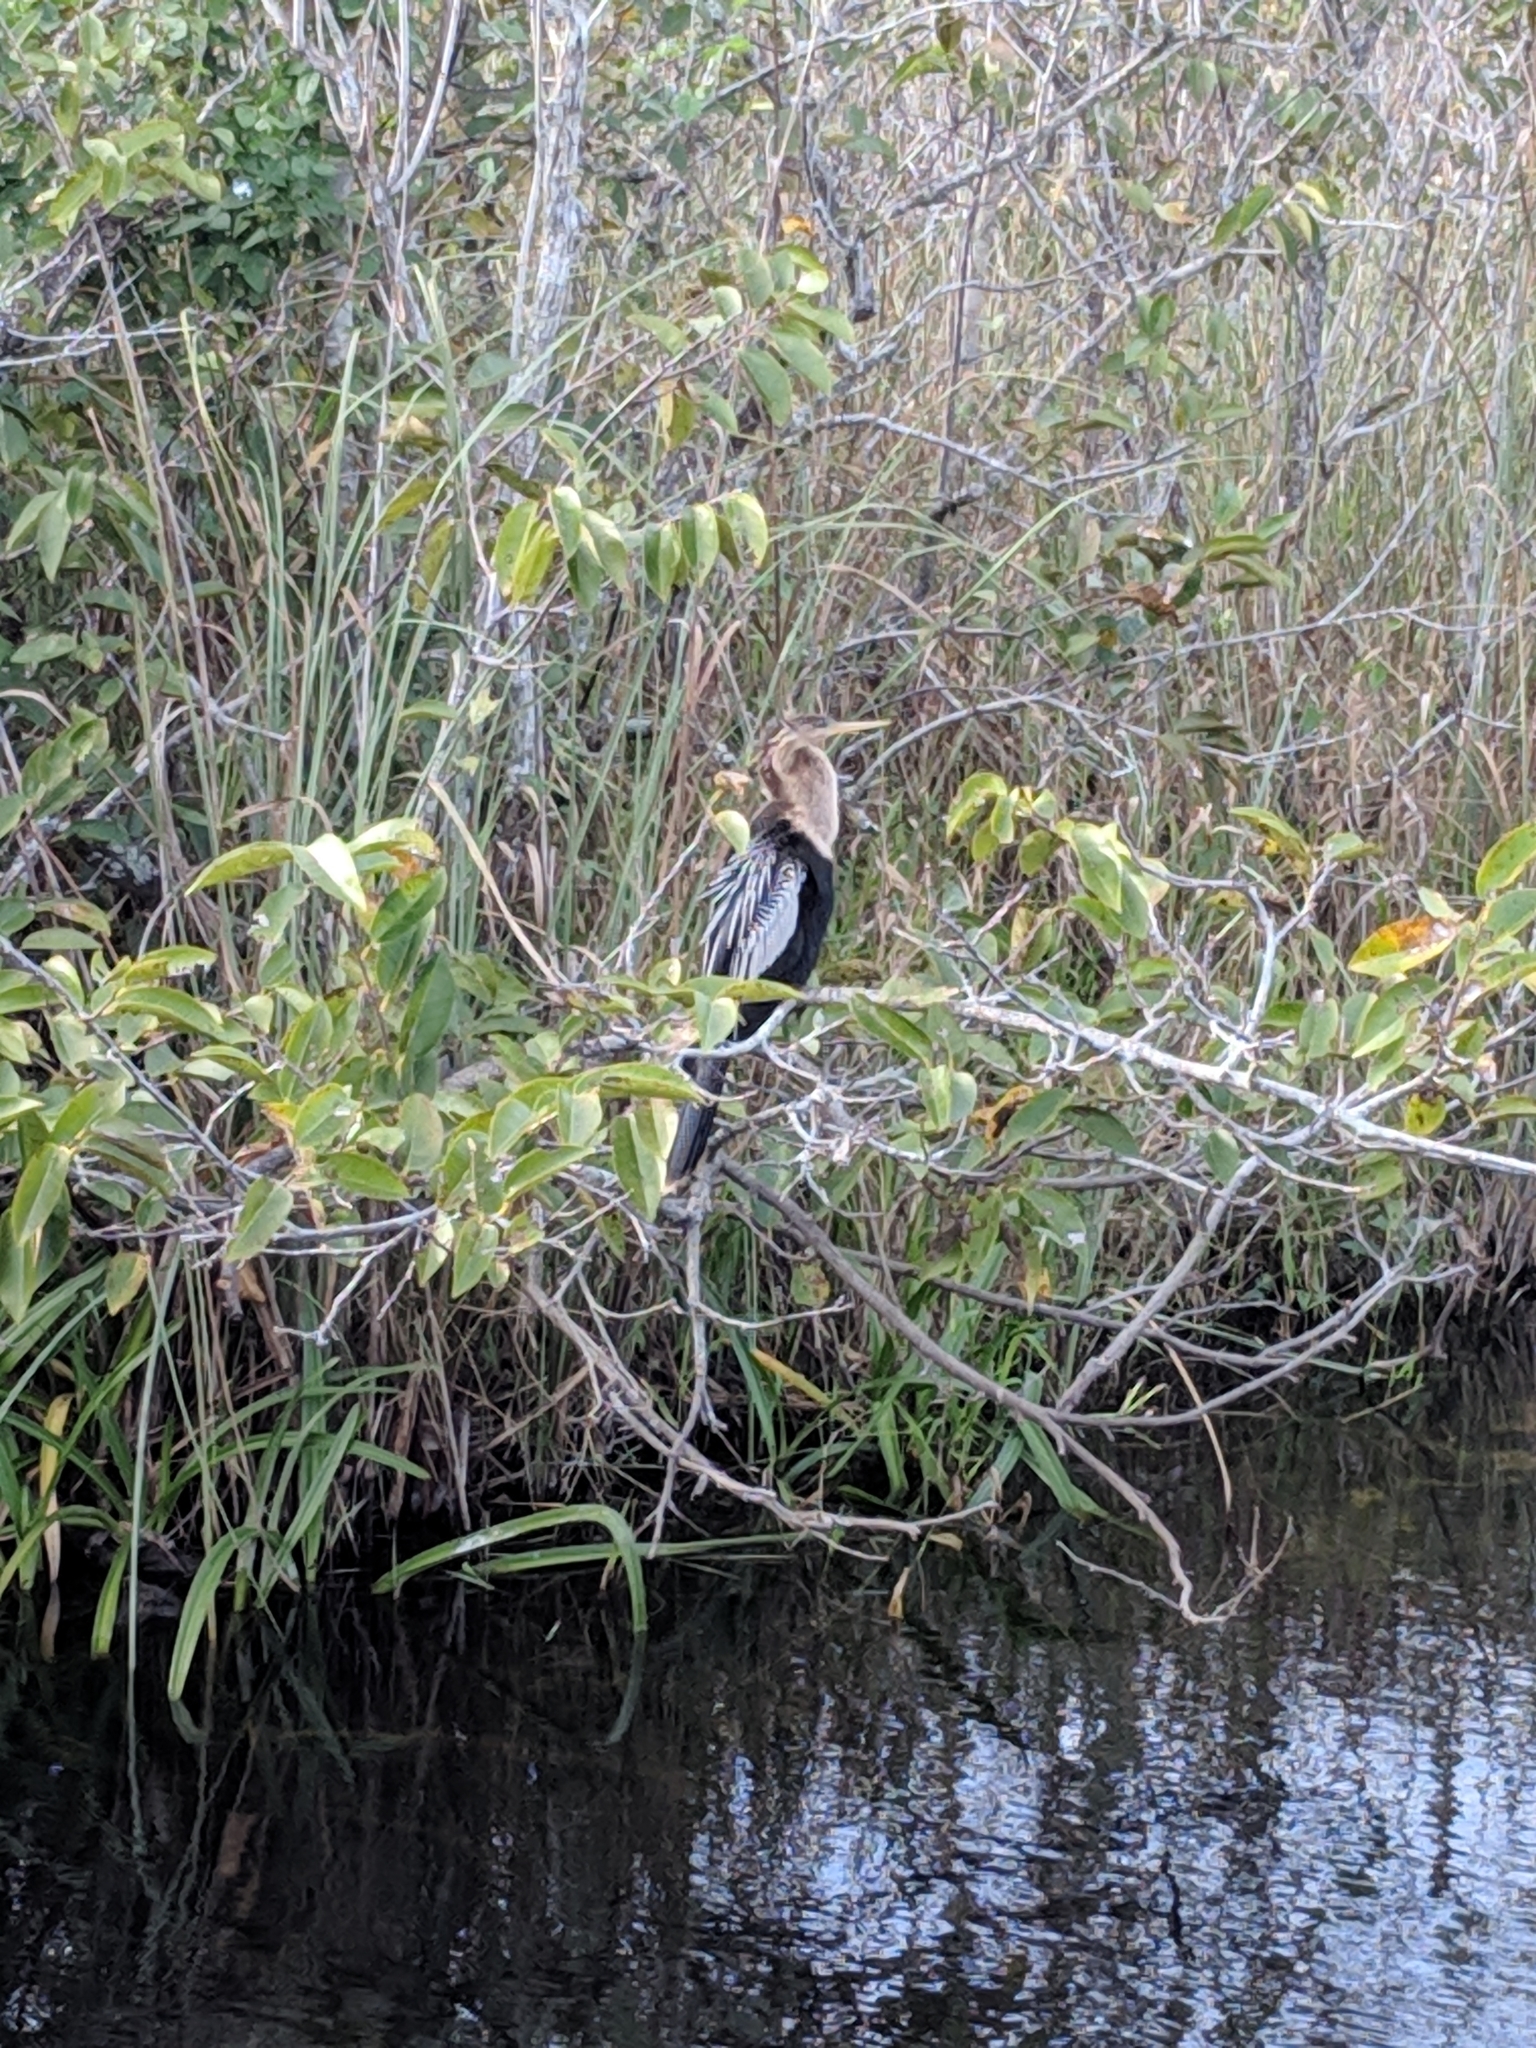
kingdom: Animalia
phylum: Chordata
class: Aves
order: Suliformes
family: Anhingidae
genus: Anhinga
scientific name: Anhinga anhinga
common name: Anhinga
